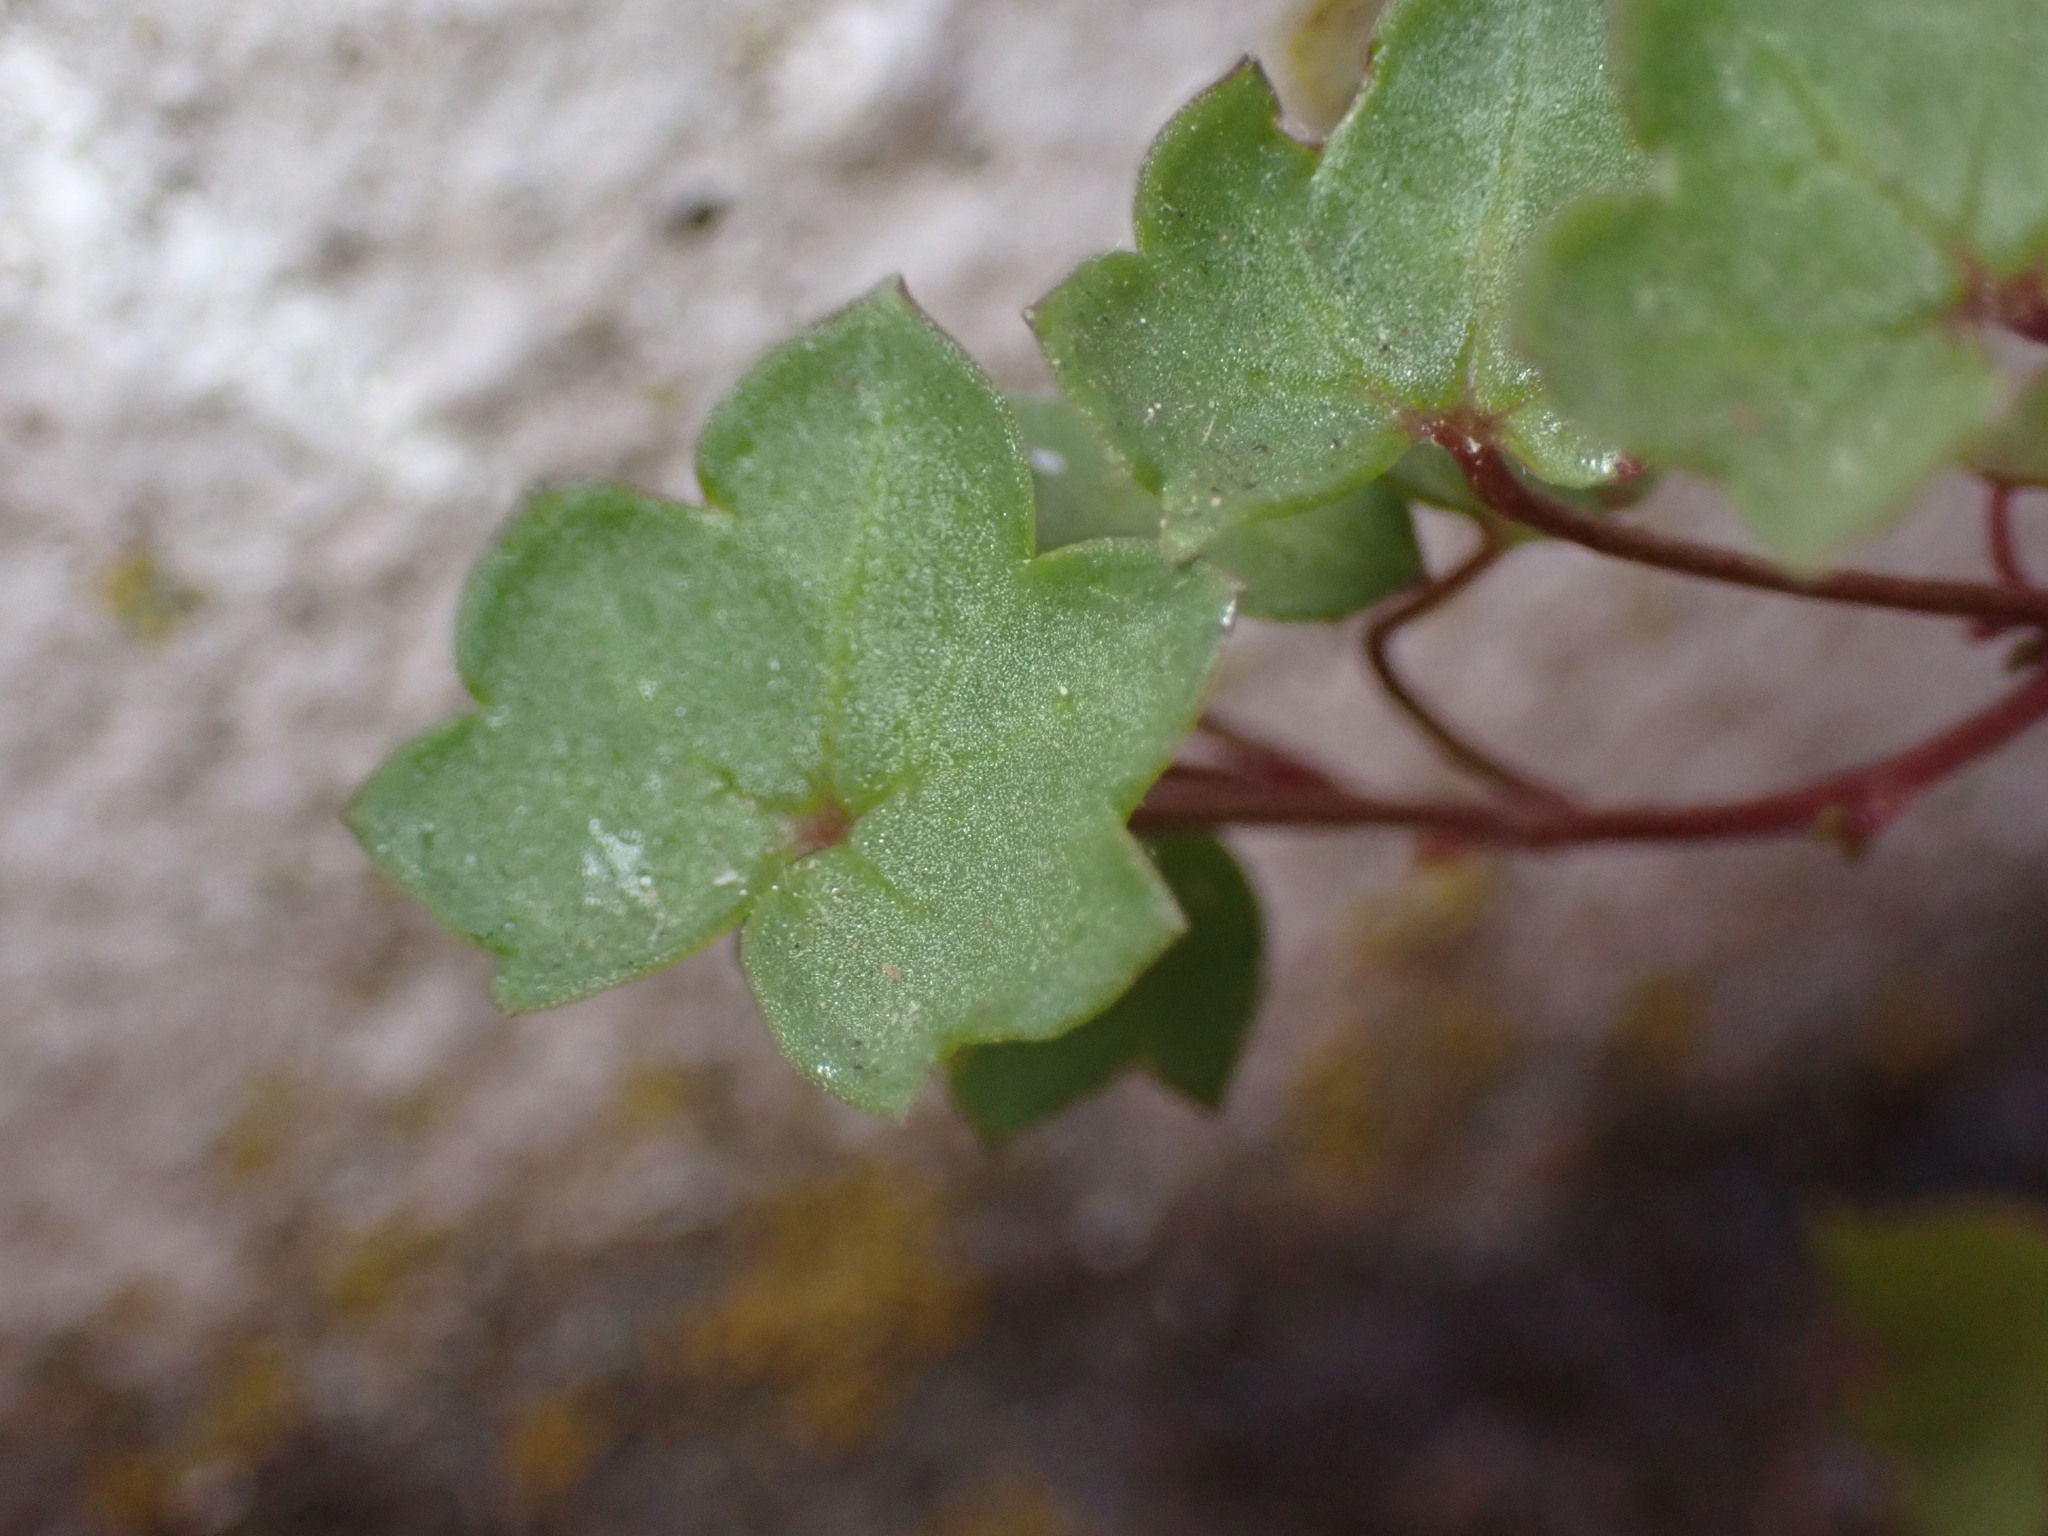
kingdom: Plantae
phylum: Tracheophyta
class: Magnoliopsida
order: Lamiales
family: Plantaginaceae
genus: Cymbalaria
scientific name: Cymbalaria muralis
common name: Ivy-leaved toadflax
